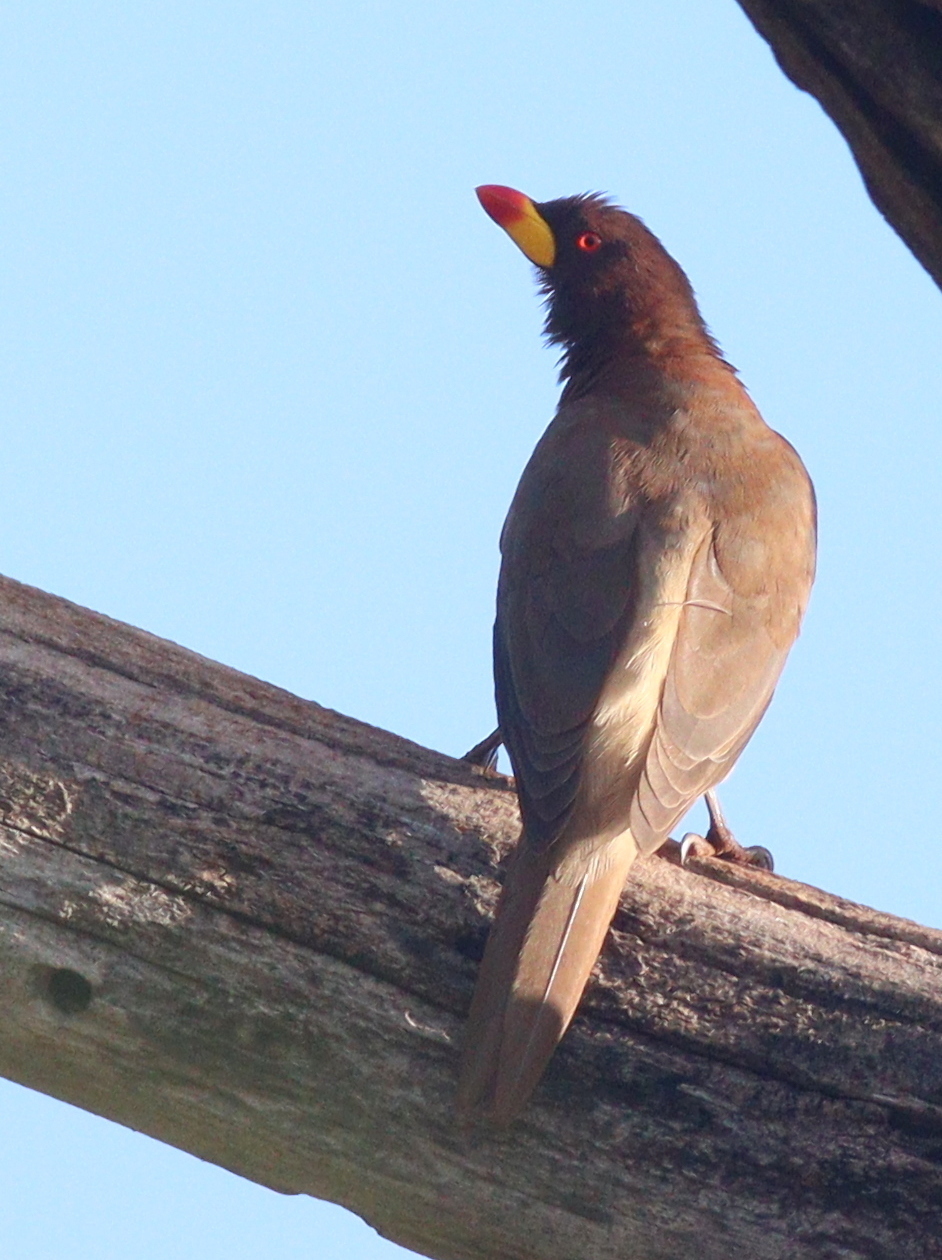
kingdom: Animalia
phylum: Chordata
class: Aves
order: Passeriformes
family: Buphagidae
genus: Buphagus
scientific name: Buphagus africanus
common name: Yellow-billed oxpecker
